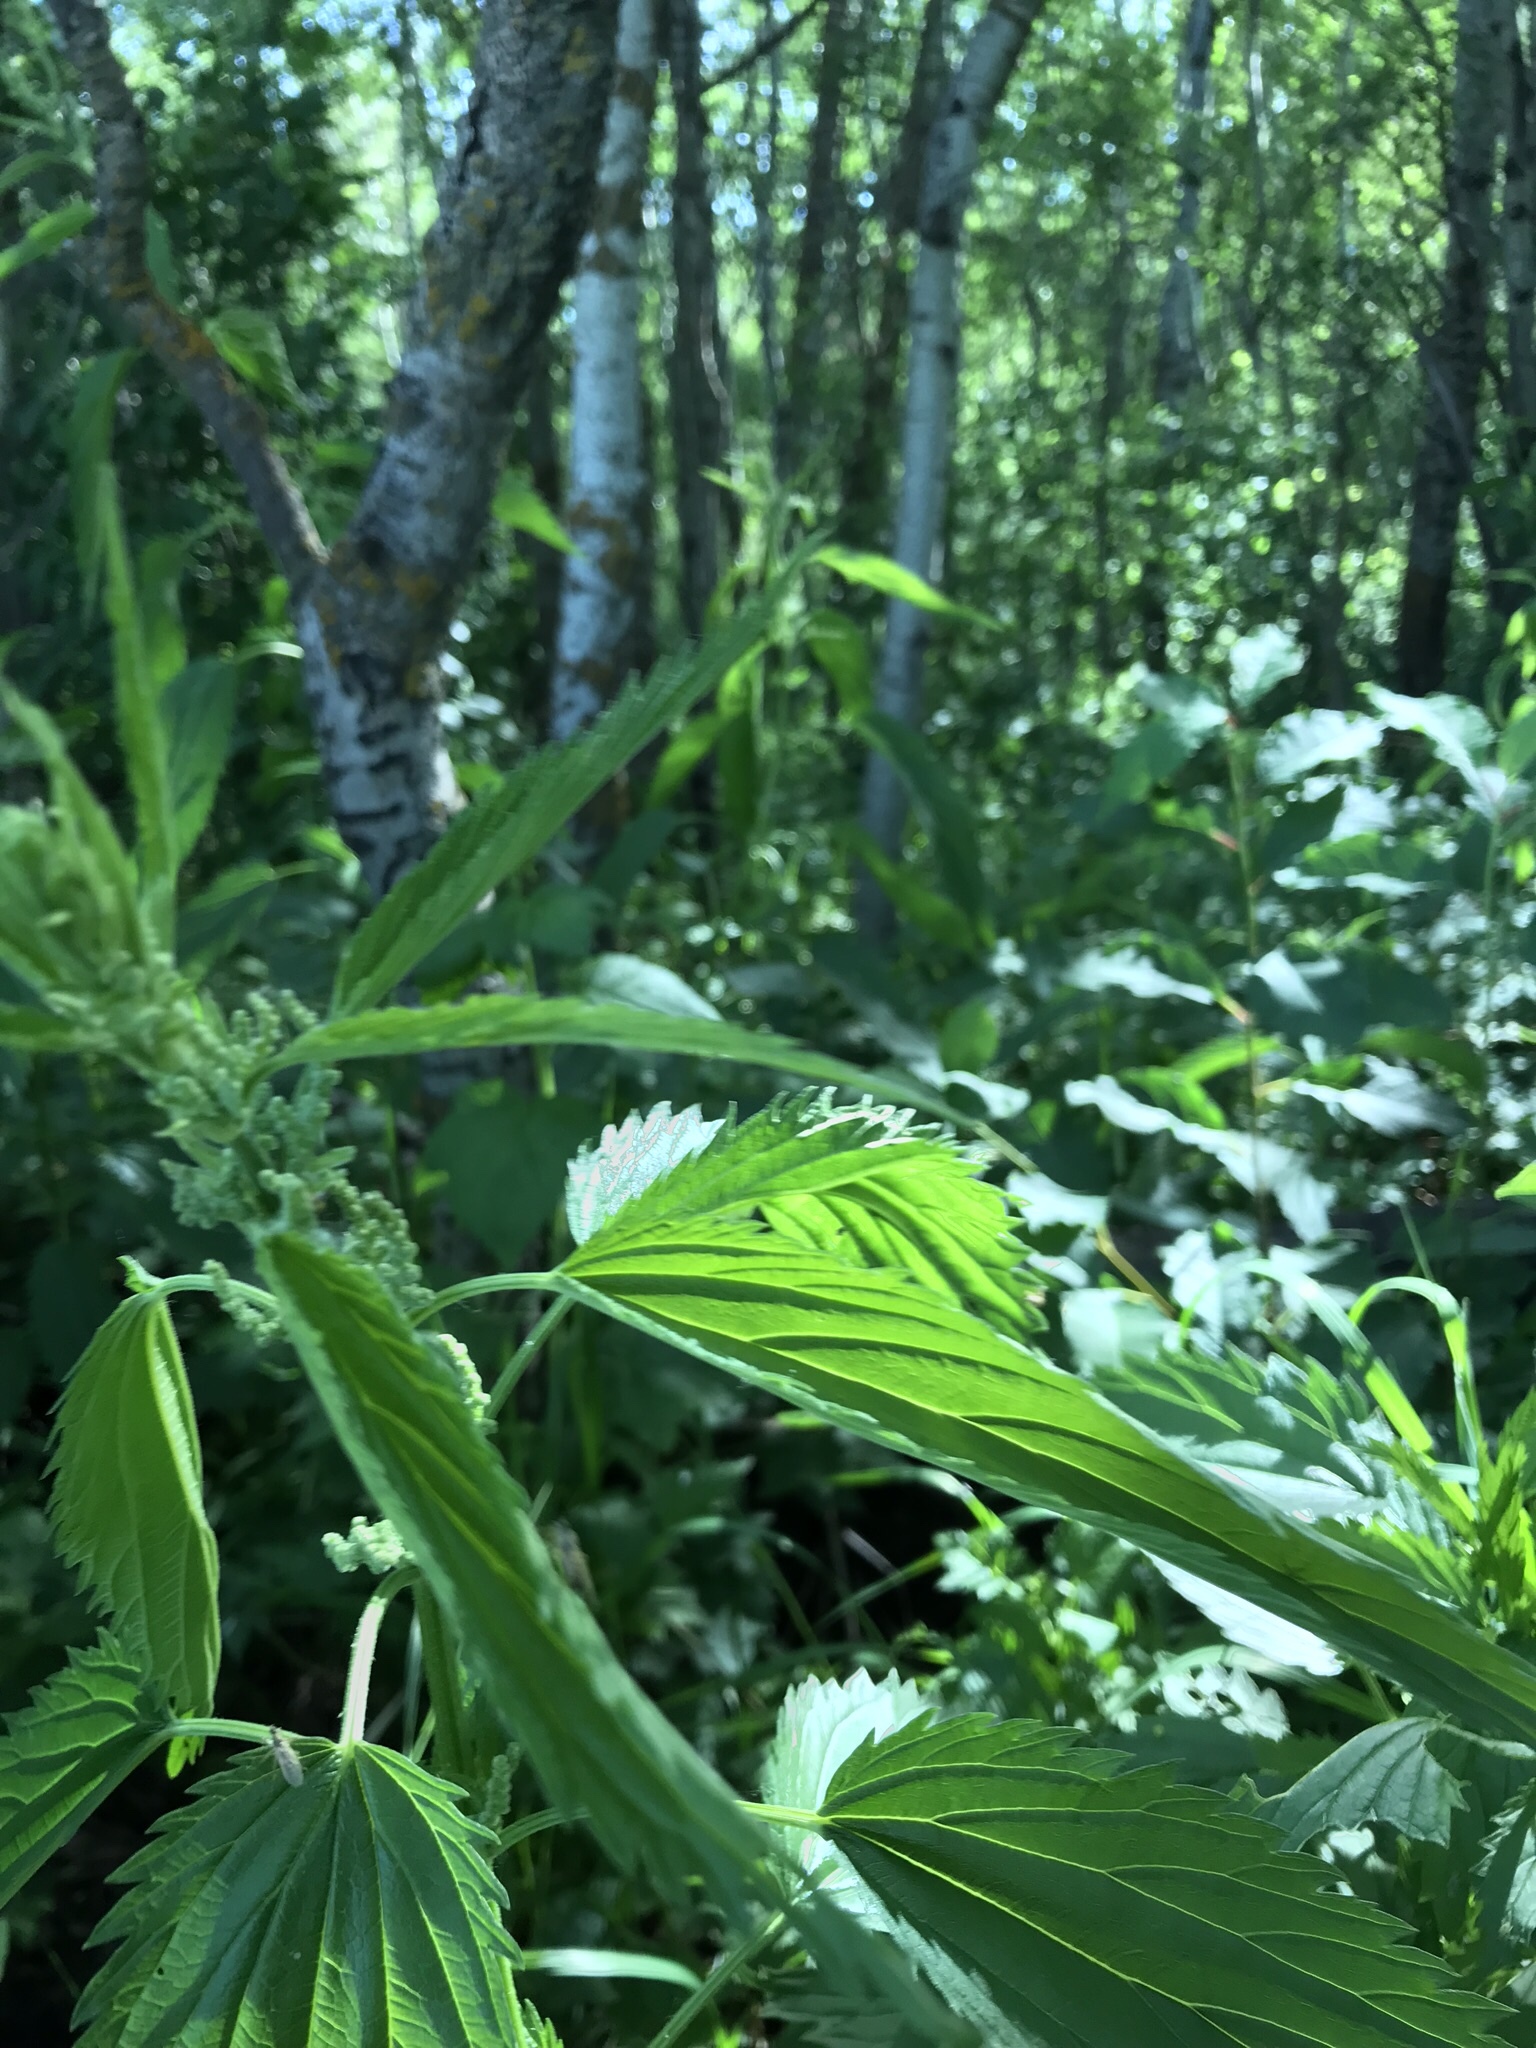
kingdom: Plantae
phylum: Tracheophyta
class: Magnoliopsida
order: Rosales
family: Urticaceae
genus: Urtica
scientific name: Urtica gracilis
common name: Slender stinging nettle
